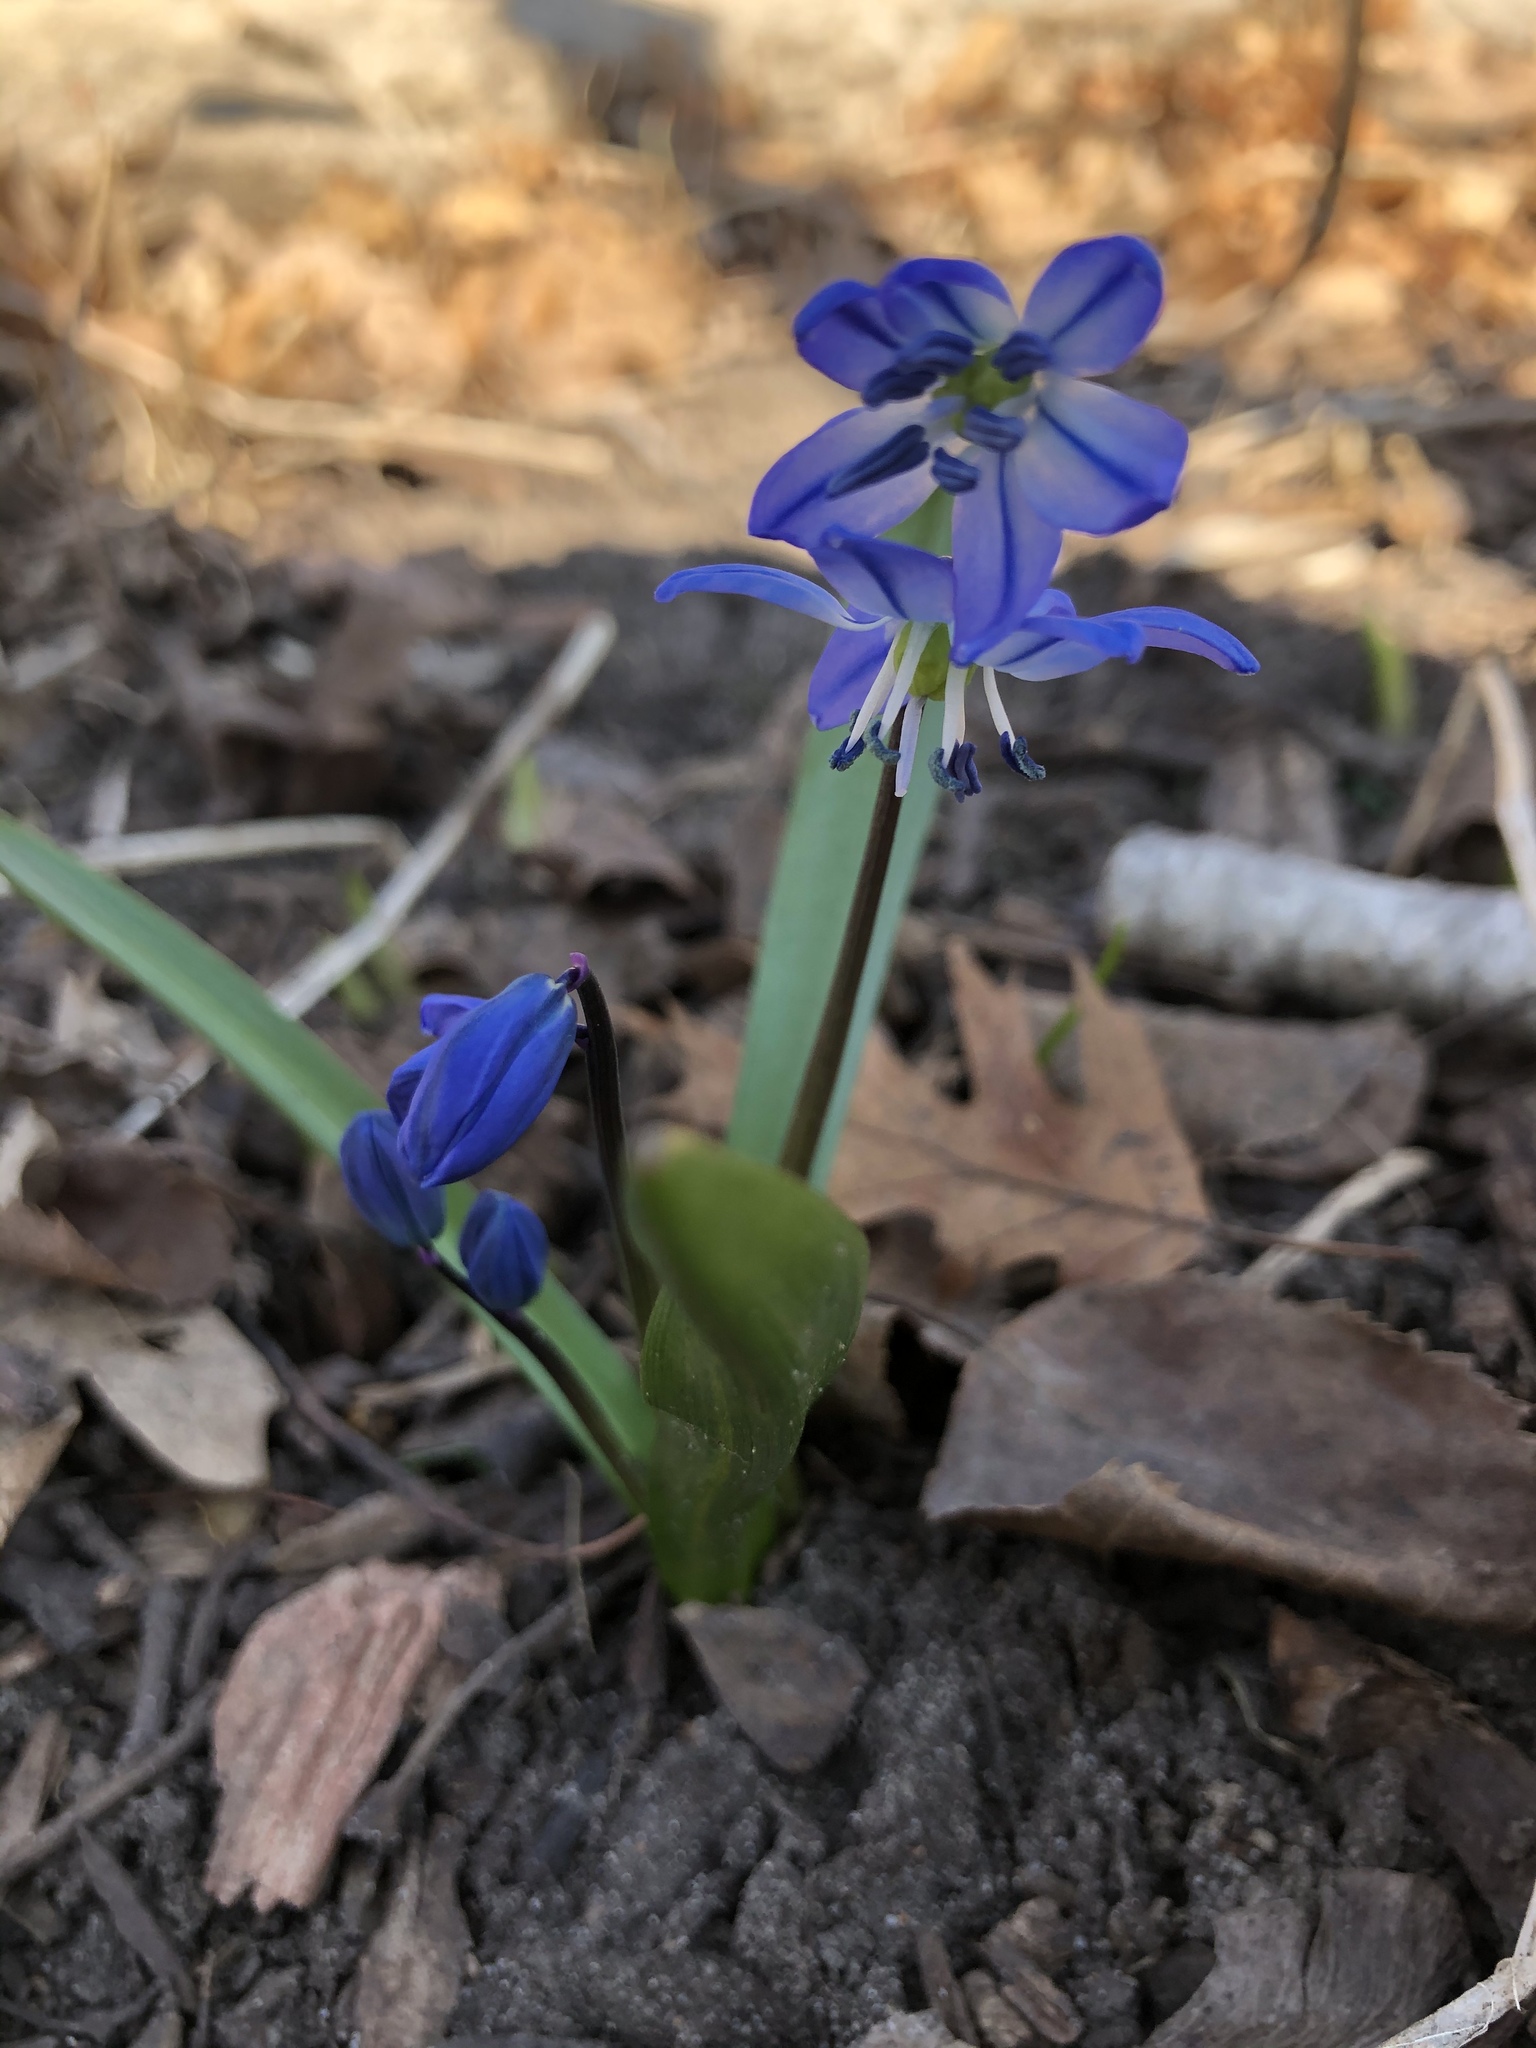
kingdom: Plantae
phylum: Tracheophyta
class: Liliopsida
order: Asparagales
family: Asparagaceae
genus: Scilla
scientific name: Scilla siberica
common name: Siberian squill
